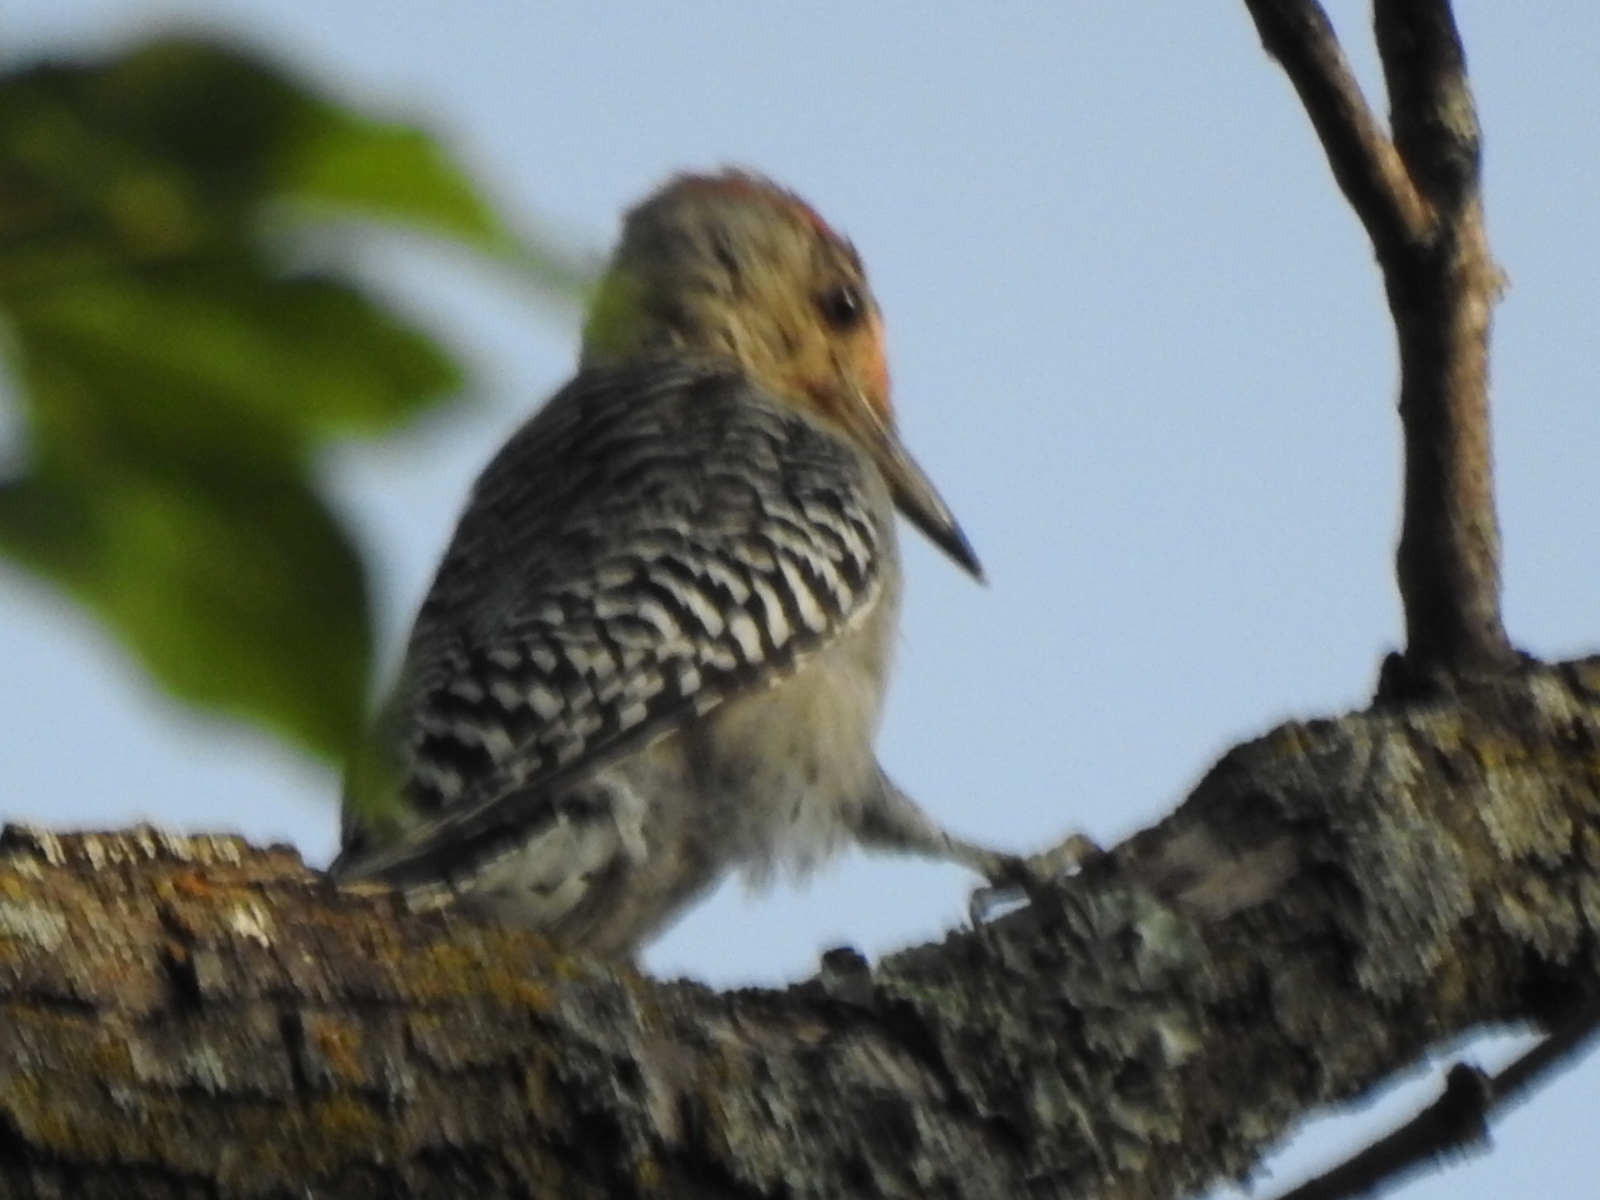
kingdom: Animalia
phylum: Chordata
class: Aves
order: Piciformes
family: Picidae
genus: Melanerpes
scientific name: Melanerpes carolinus
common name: Red-bellied woodpecker
